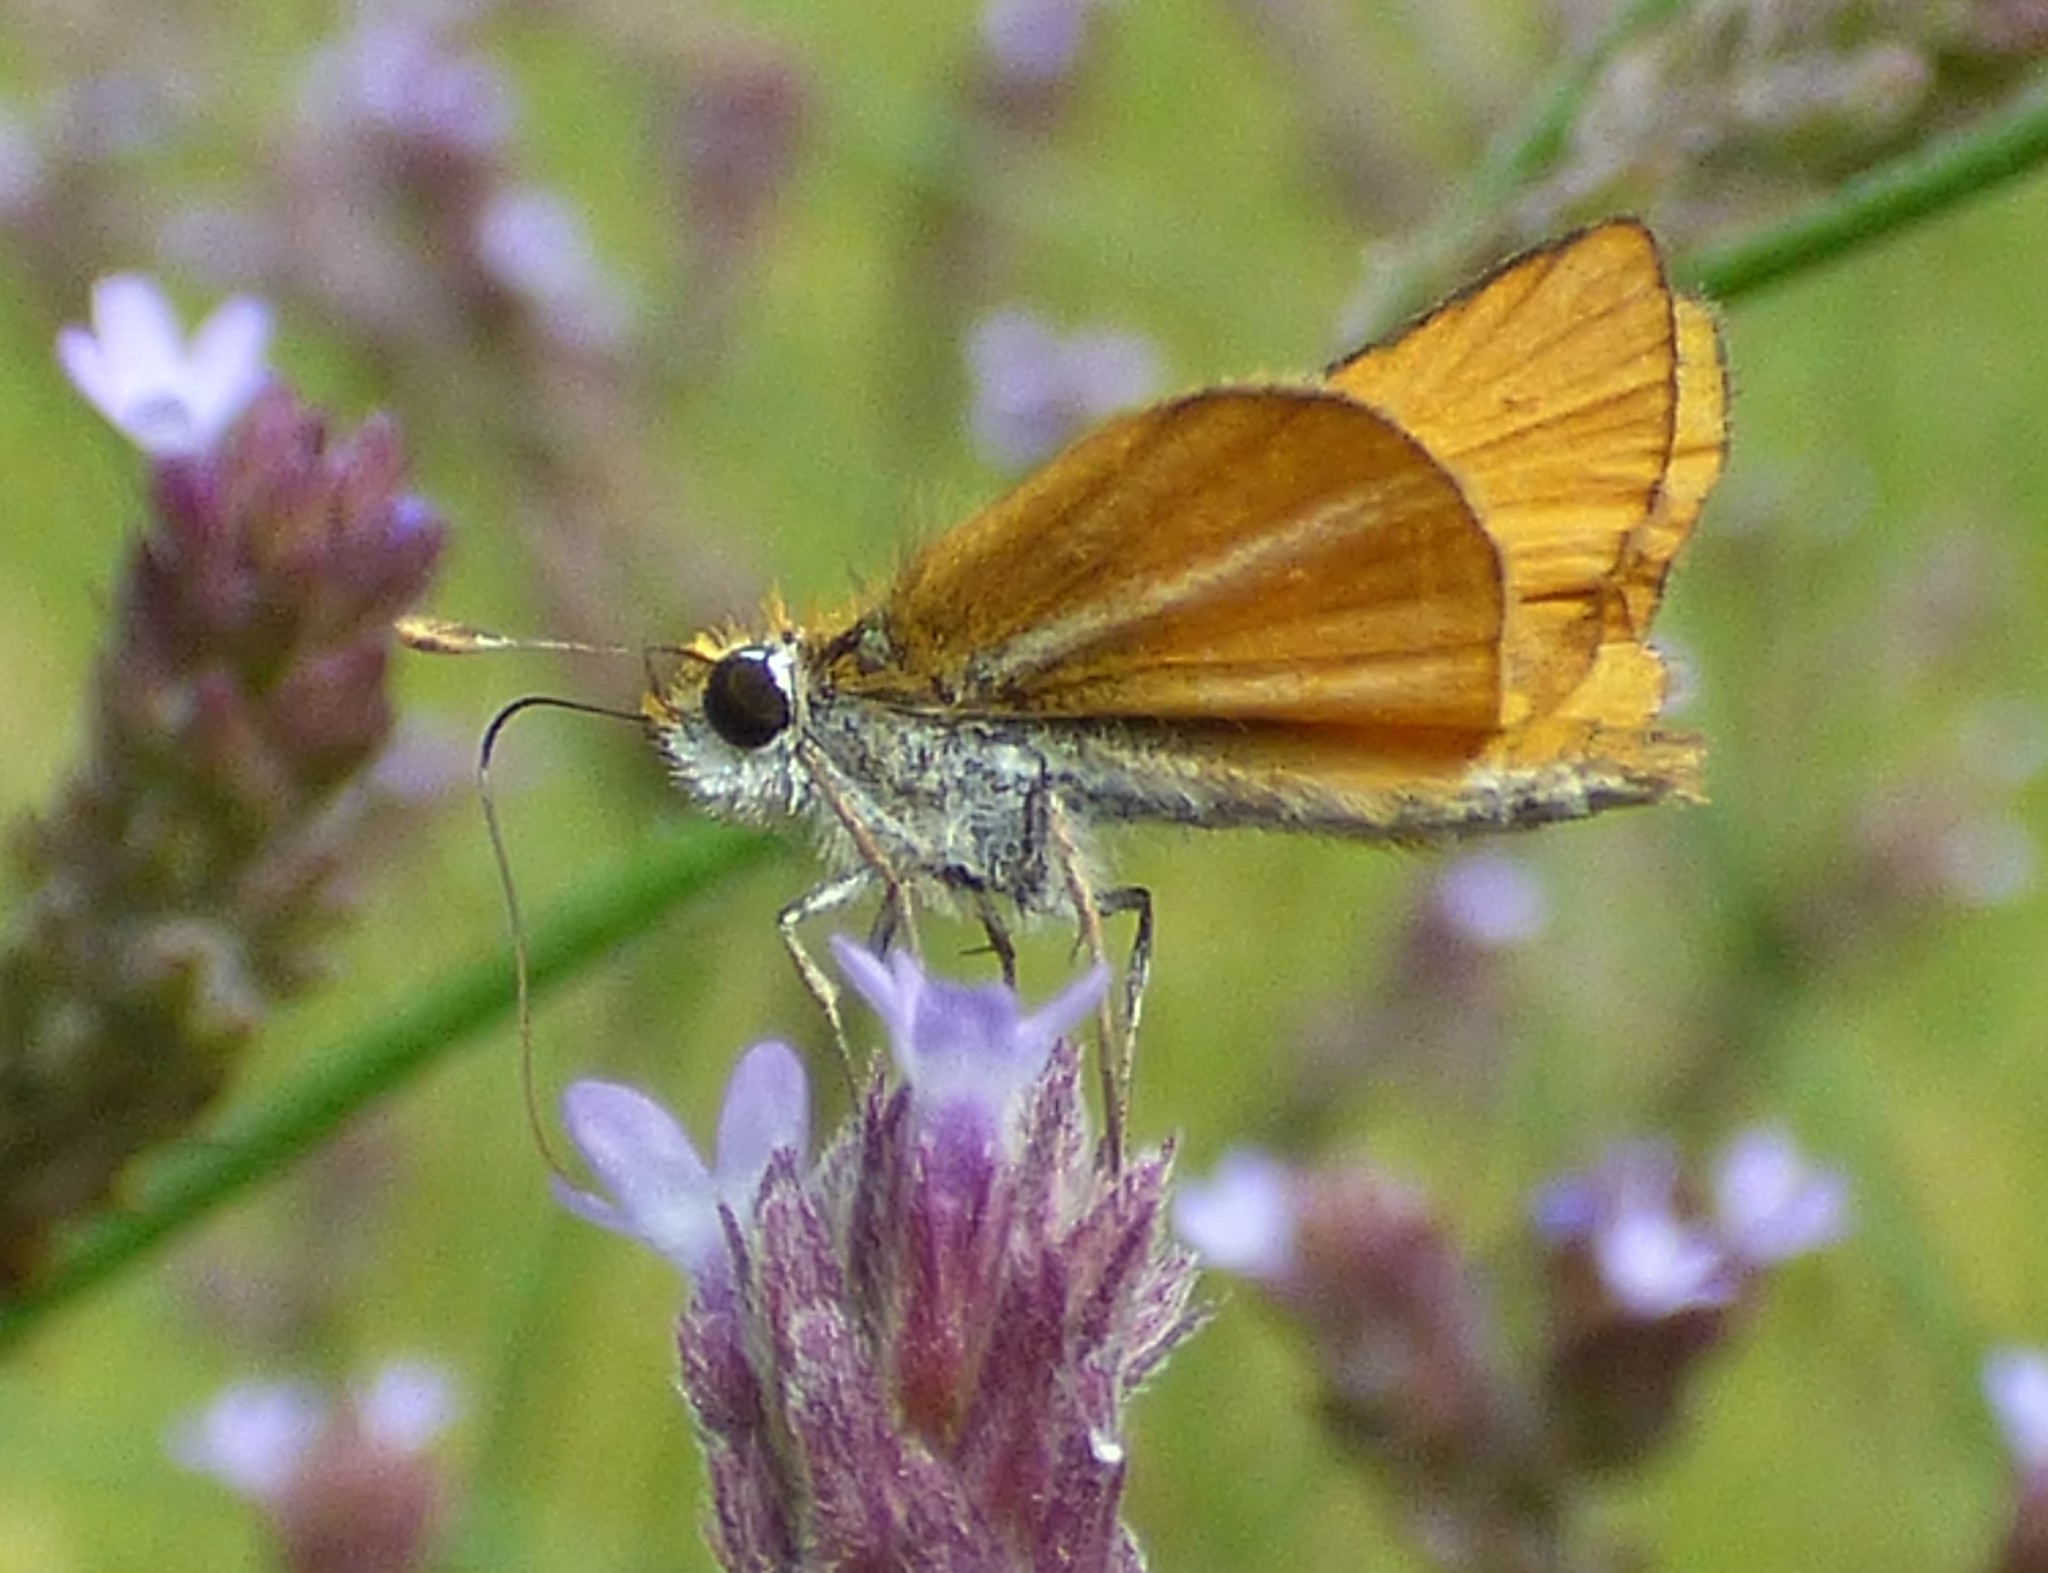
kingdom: Animalia
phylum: Arthropoda
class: Insecta
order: Lepidoptera
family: Hesperiidae
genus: Copaeodes
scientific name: Copaeodes minima
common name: Southern skipperling
